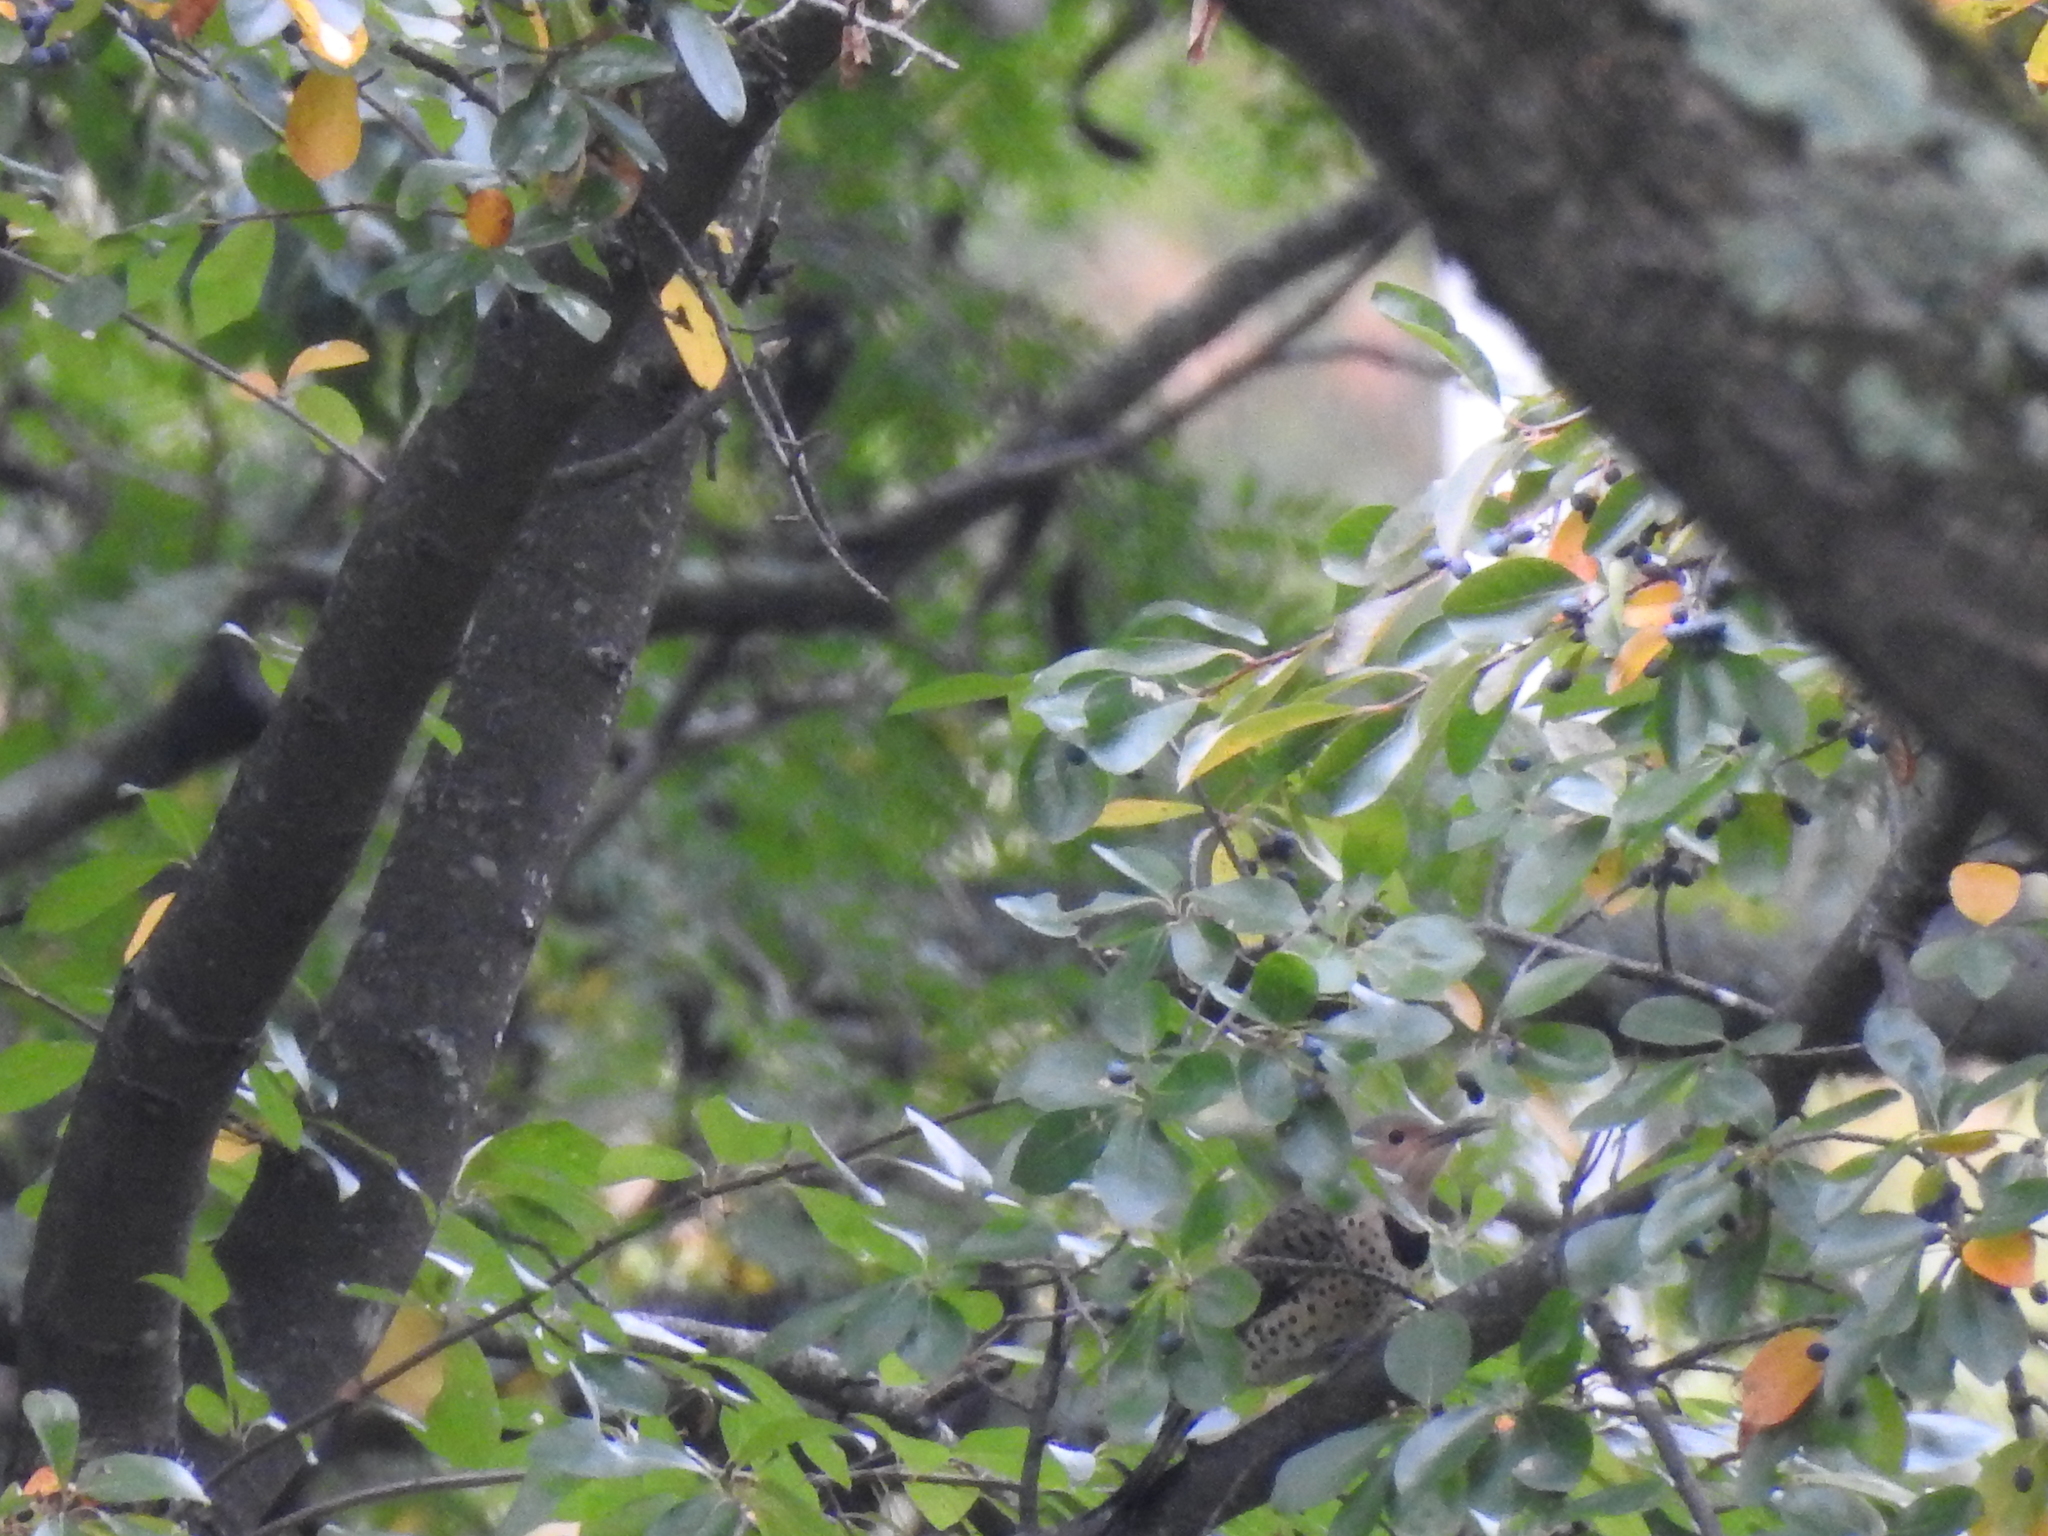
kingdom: Animalia
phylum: Chordata
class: Aves
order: Piciformes
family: Picidae
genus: Colaptes
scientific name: Colaptes auratus
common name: Northern flicker
